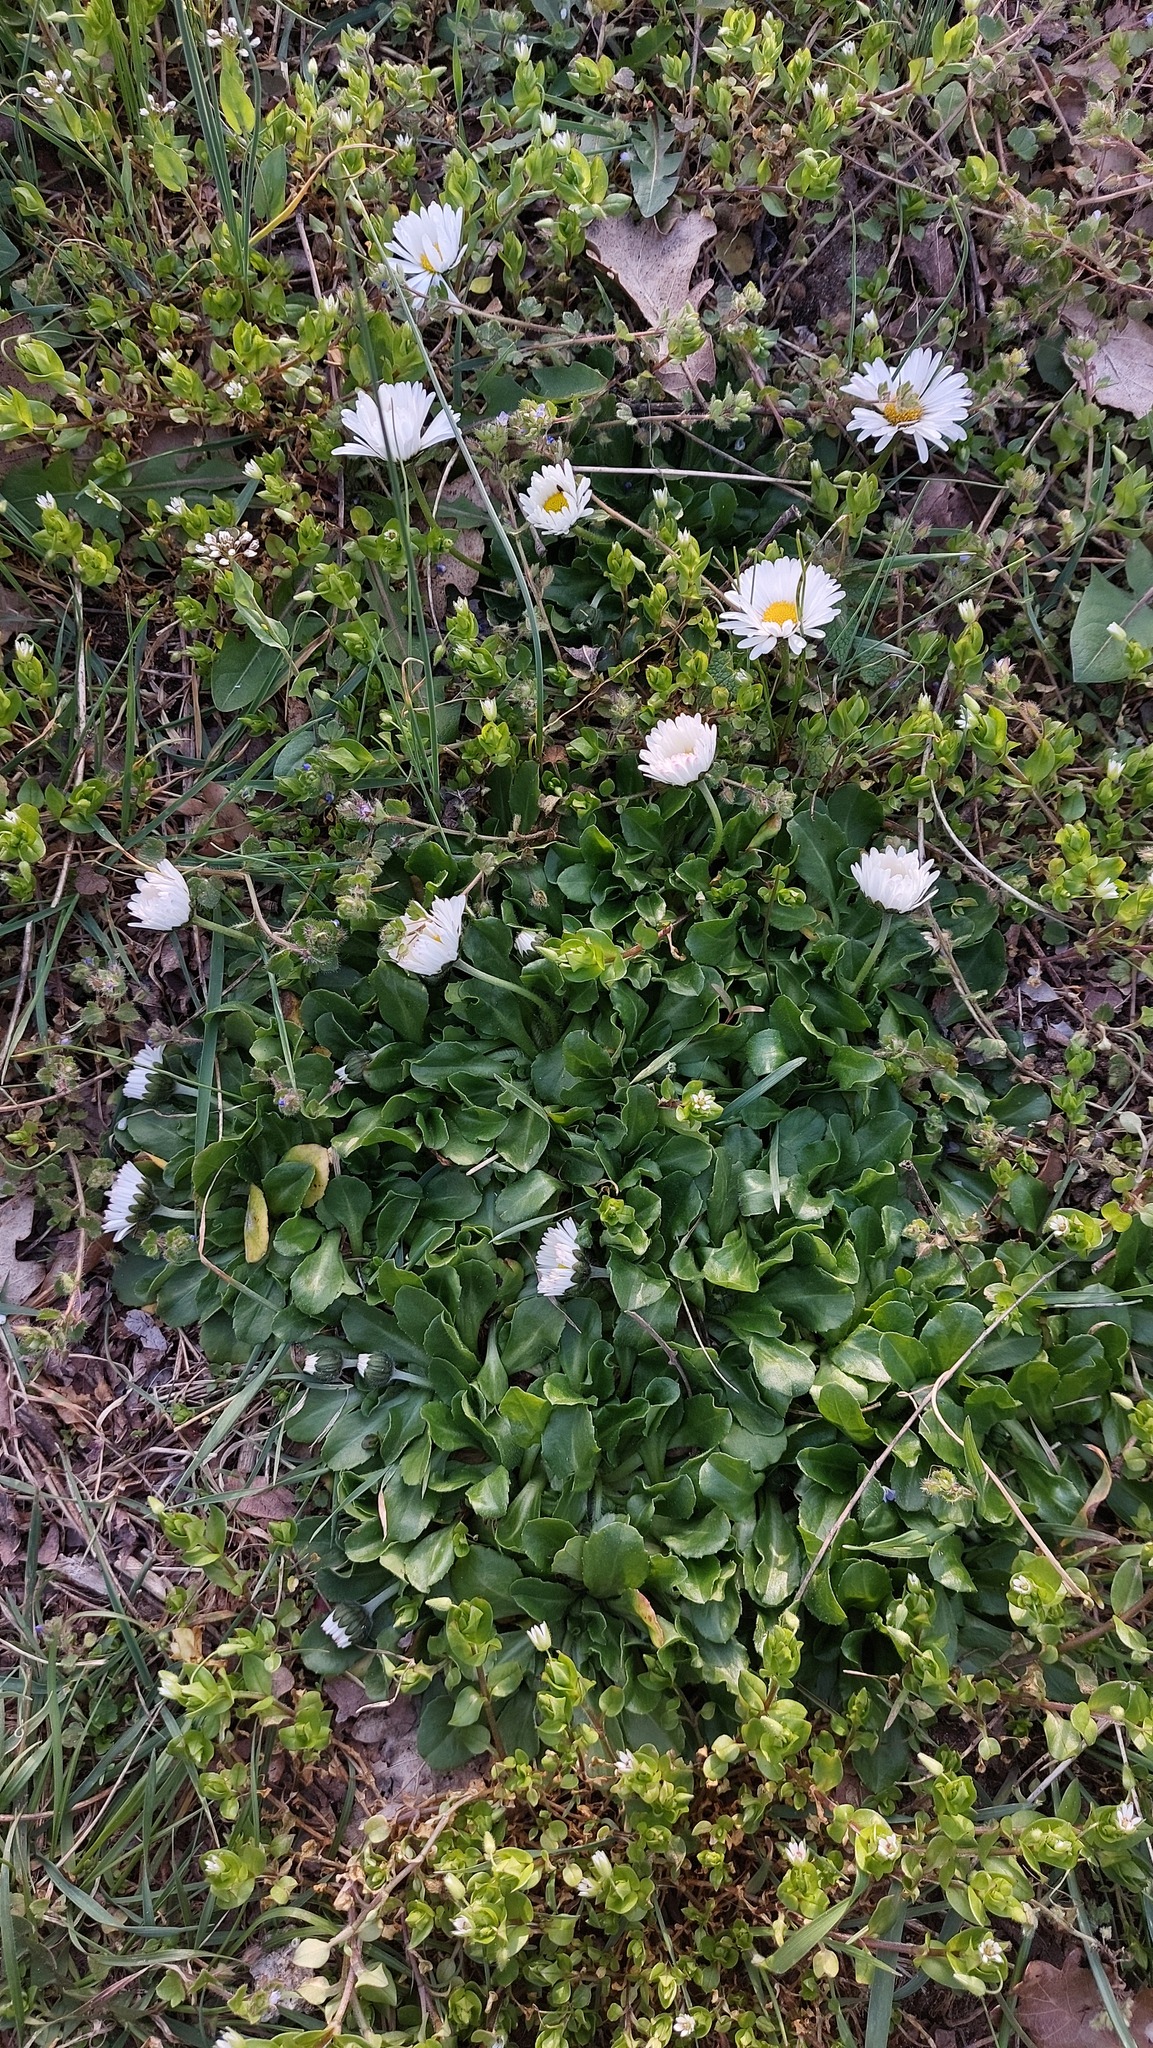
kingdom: Plantae
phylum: Tracheophyta
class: Magnoliopsida
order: Asterales
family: Asteraceae
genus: Bellis
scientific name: Bellis perennis
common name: Lawndaisy
